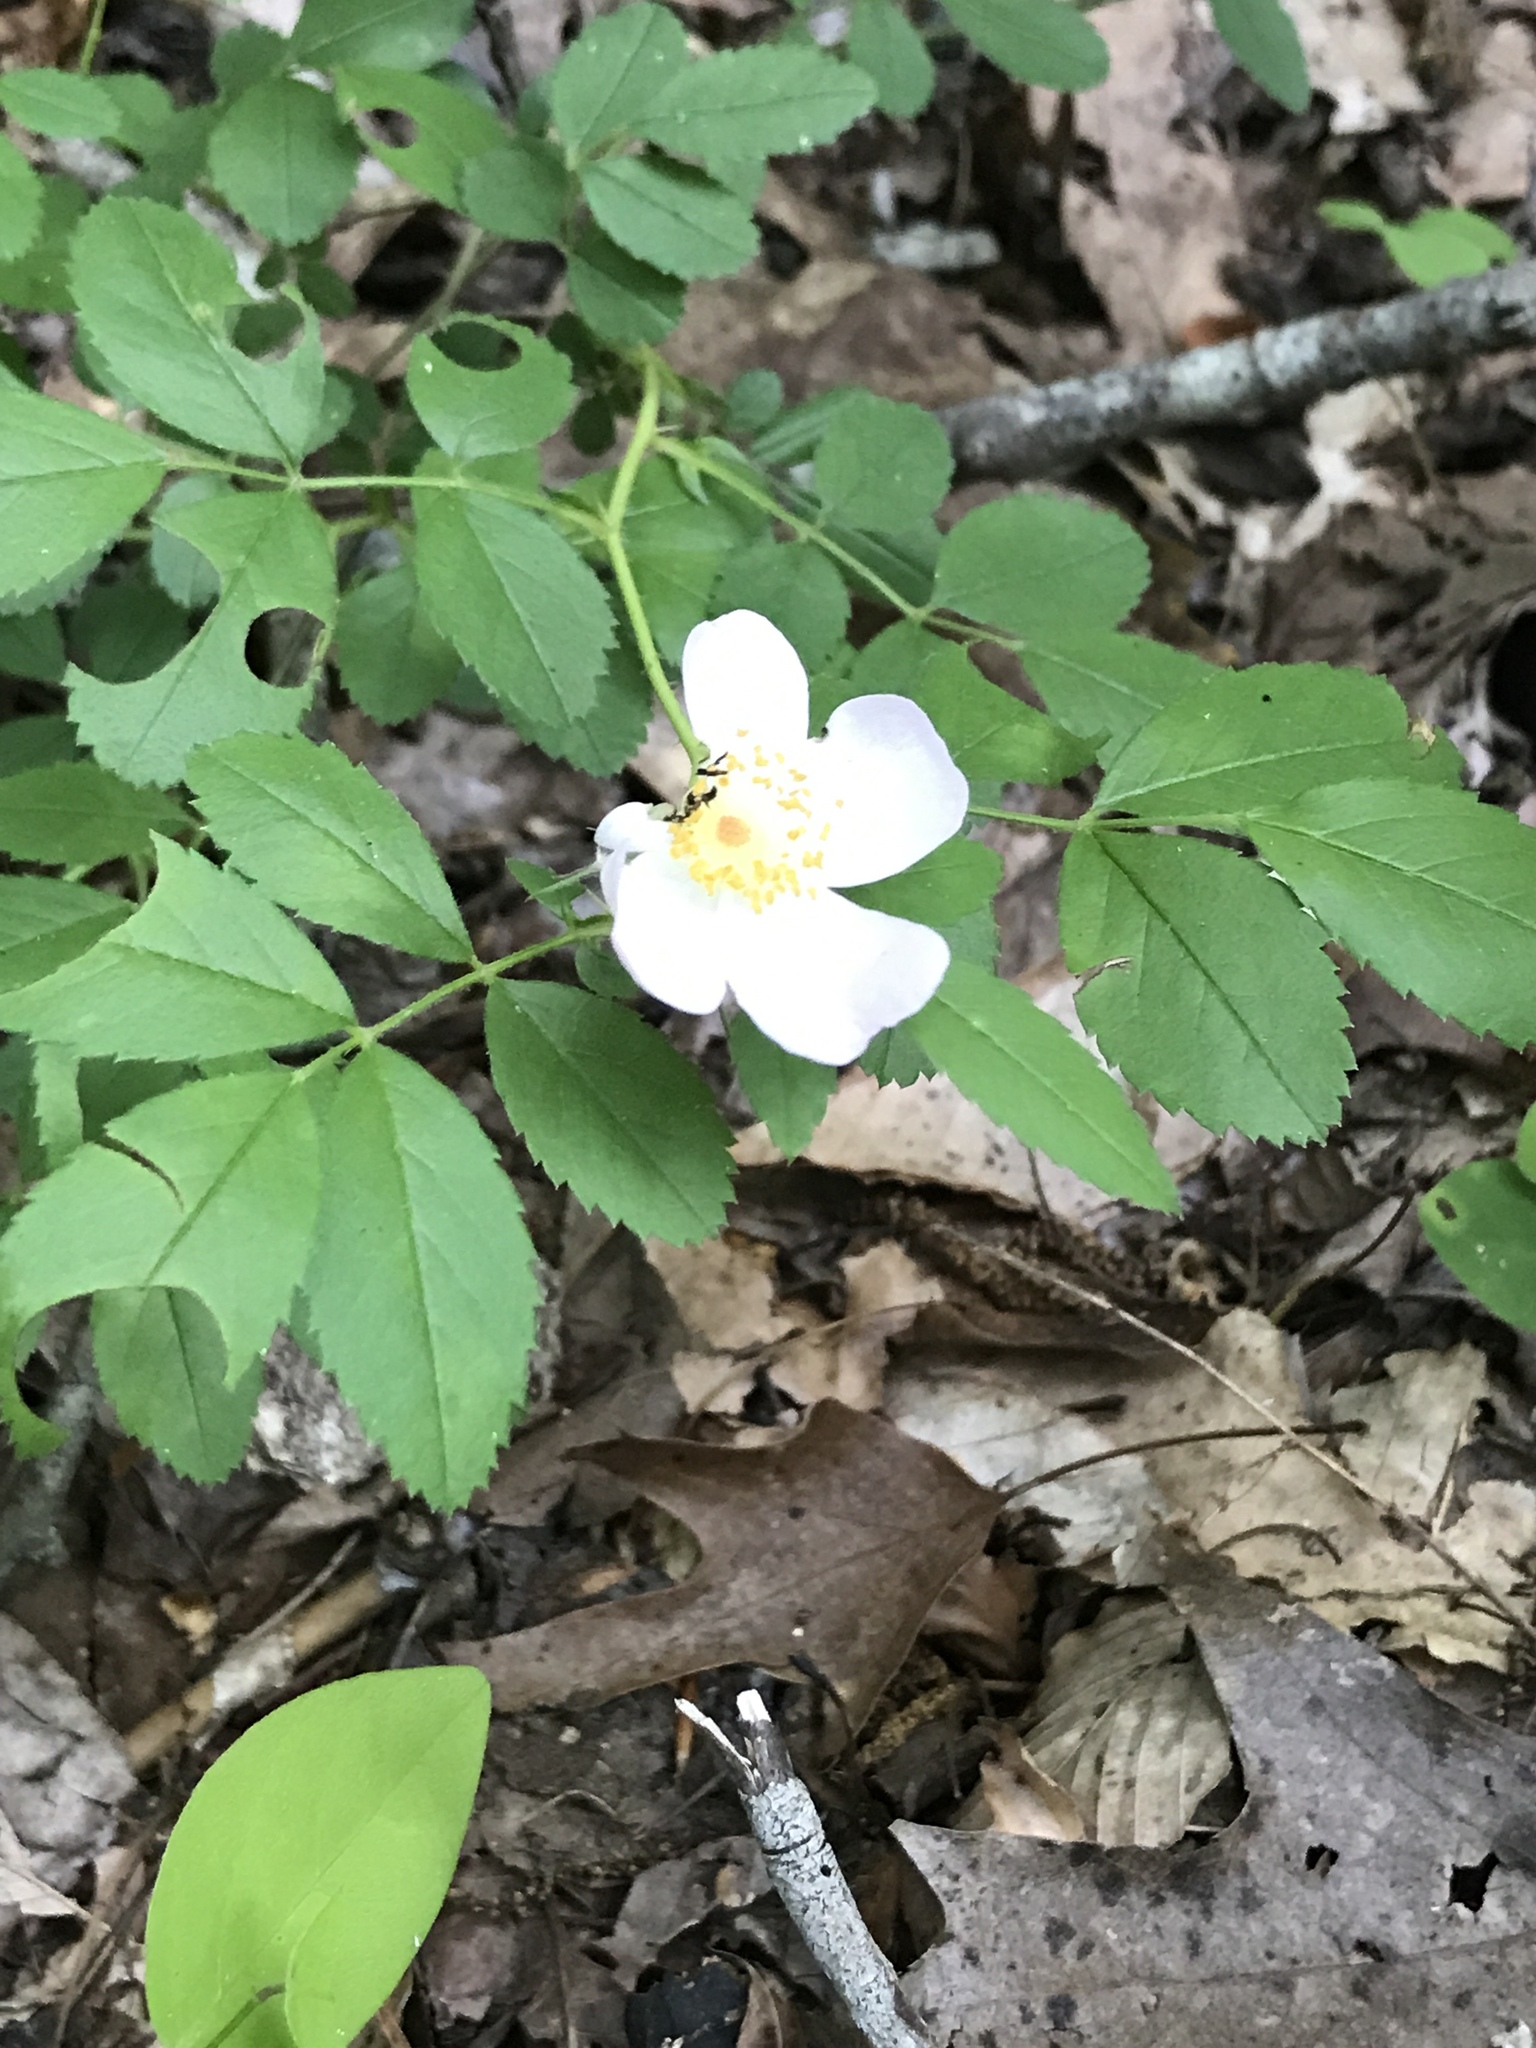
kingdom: Plantae
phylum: Tracheophyta
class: Magnoliopsida
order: Rosales
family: Rosaceae
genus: Rosa
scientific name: Rosa carolina
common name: Pasture rose
